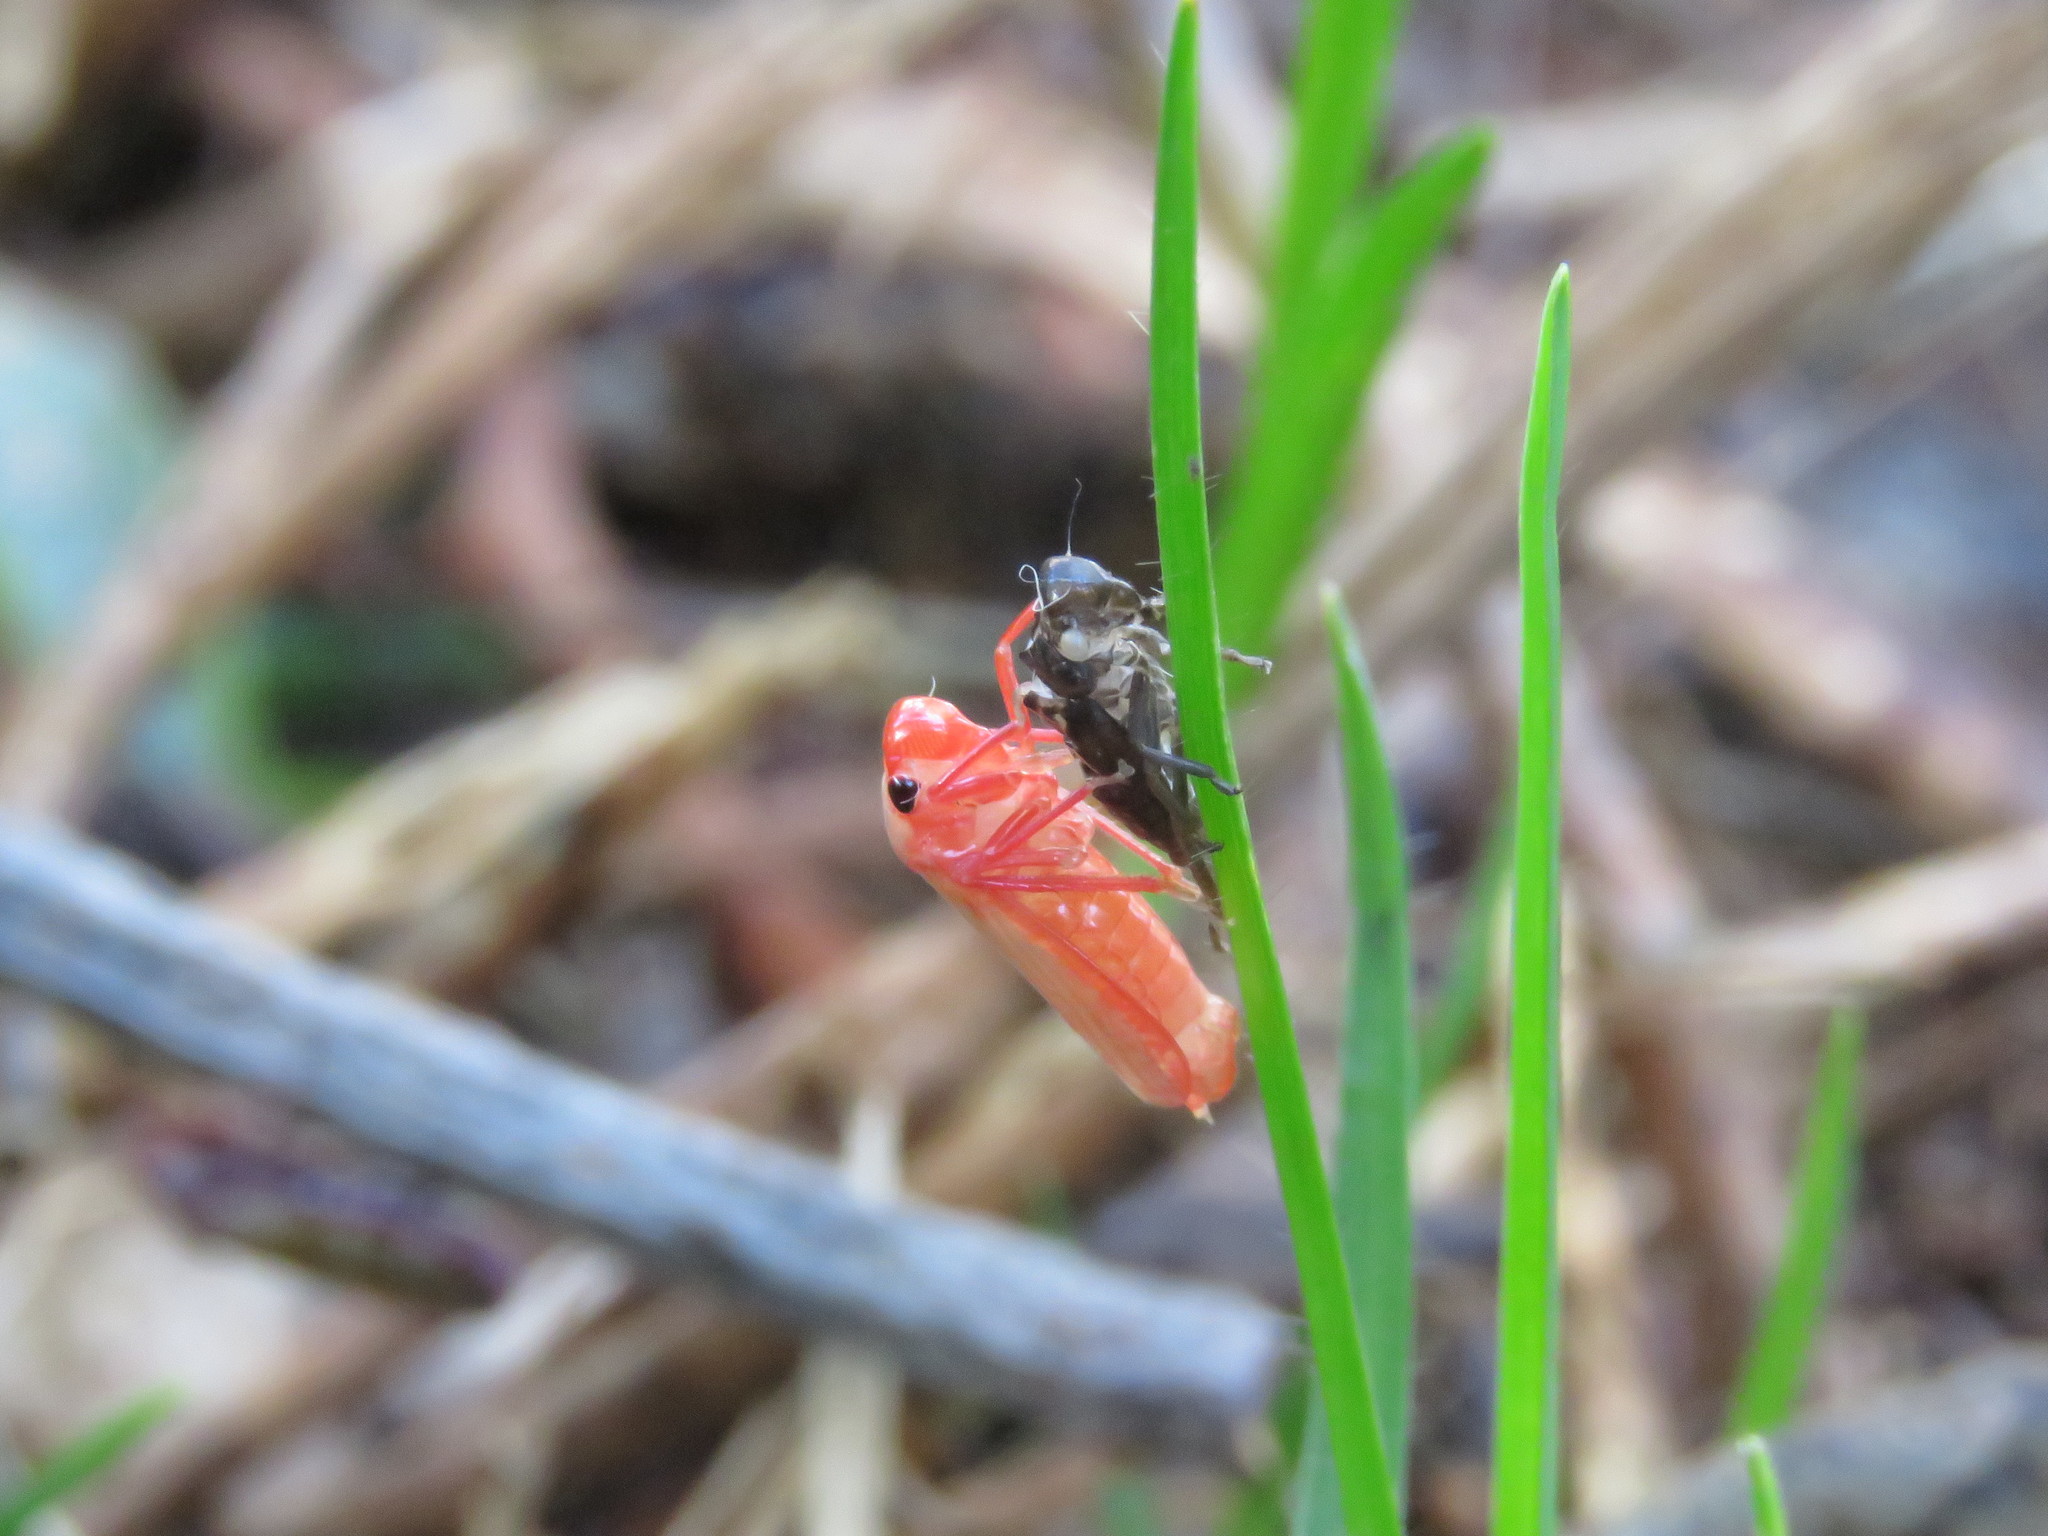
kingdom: Animalia
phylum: Arthropoda
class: Insecta
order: Hemiptera
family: Cicadellidae
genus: Paracatua
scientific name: Paracatua rubrolimbata
